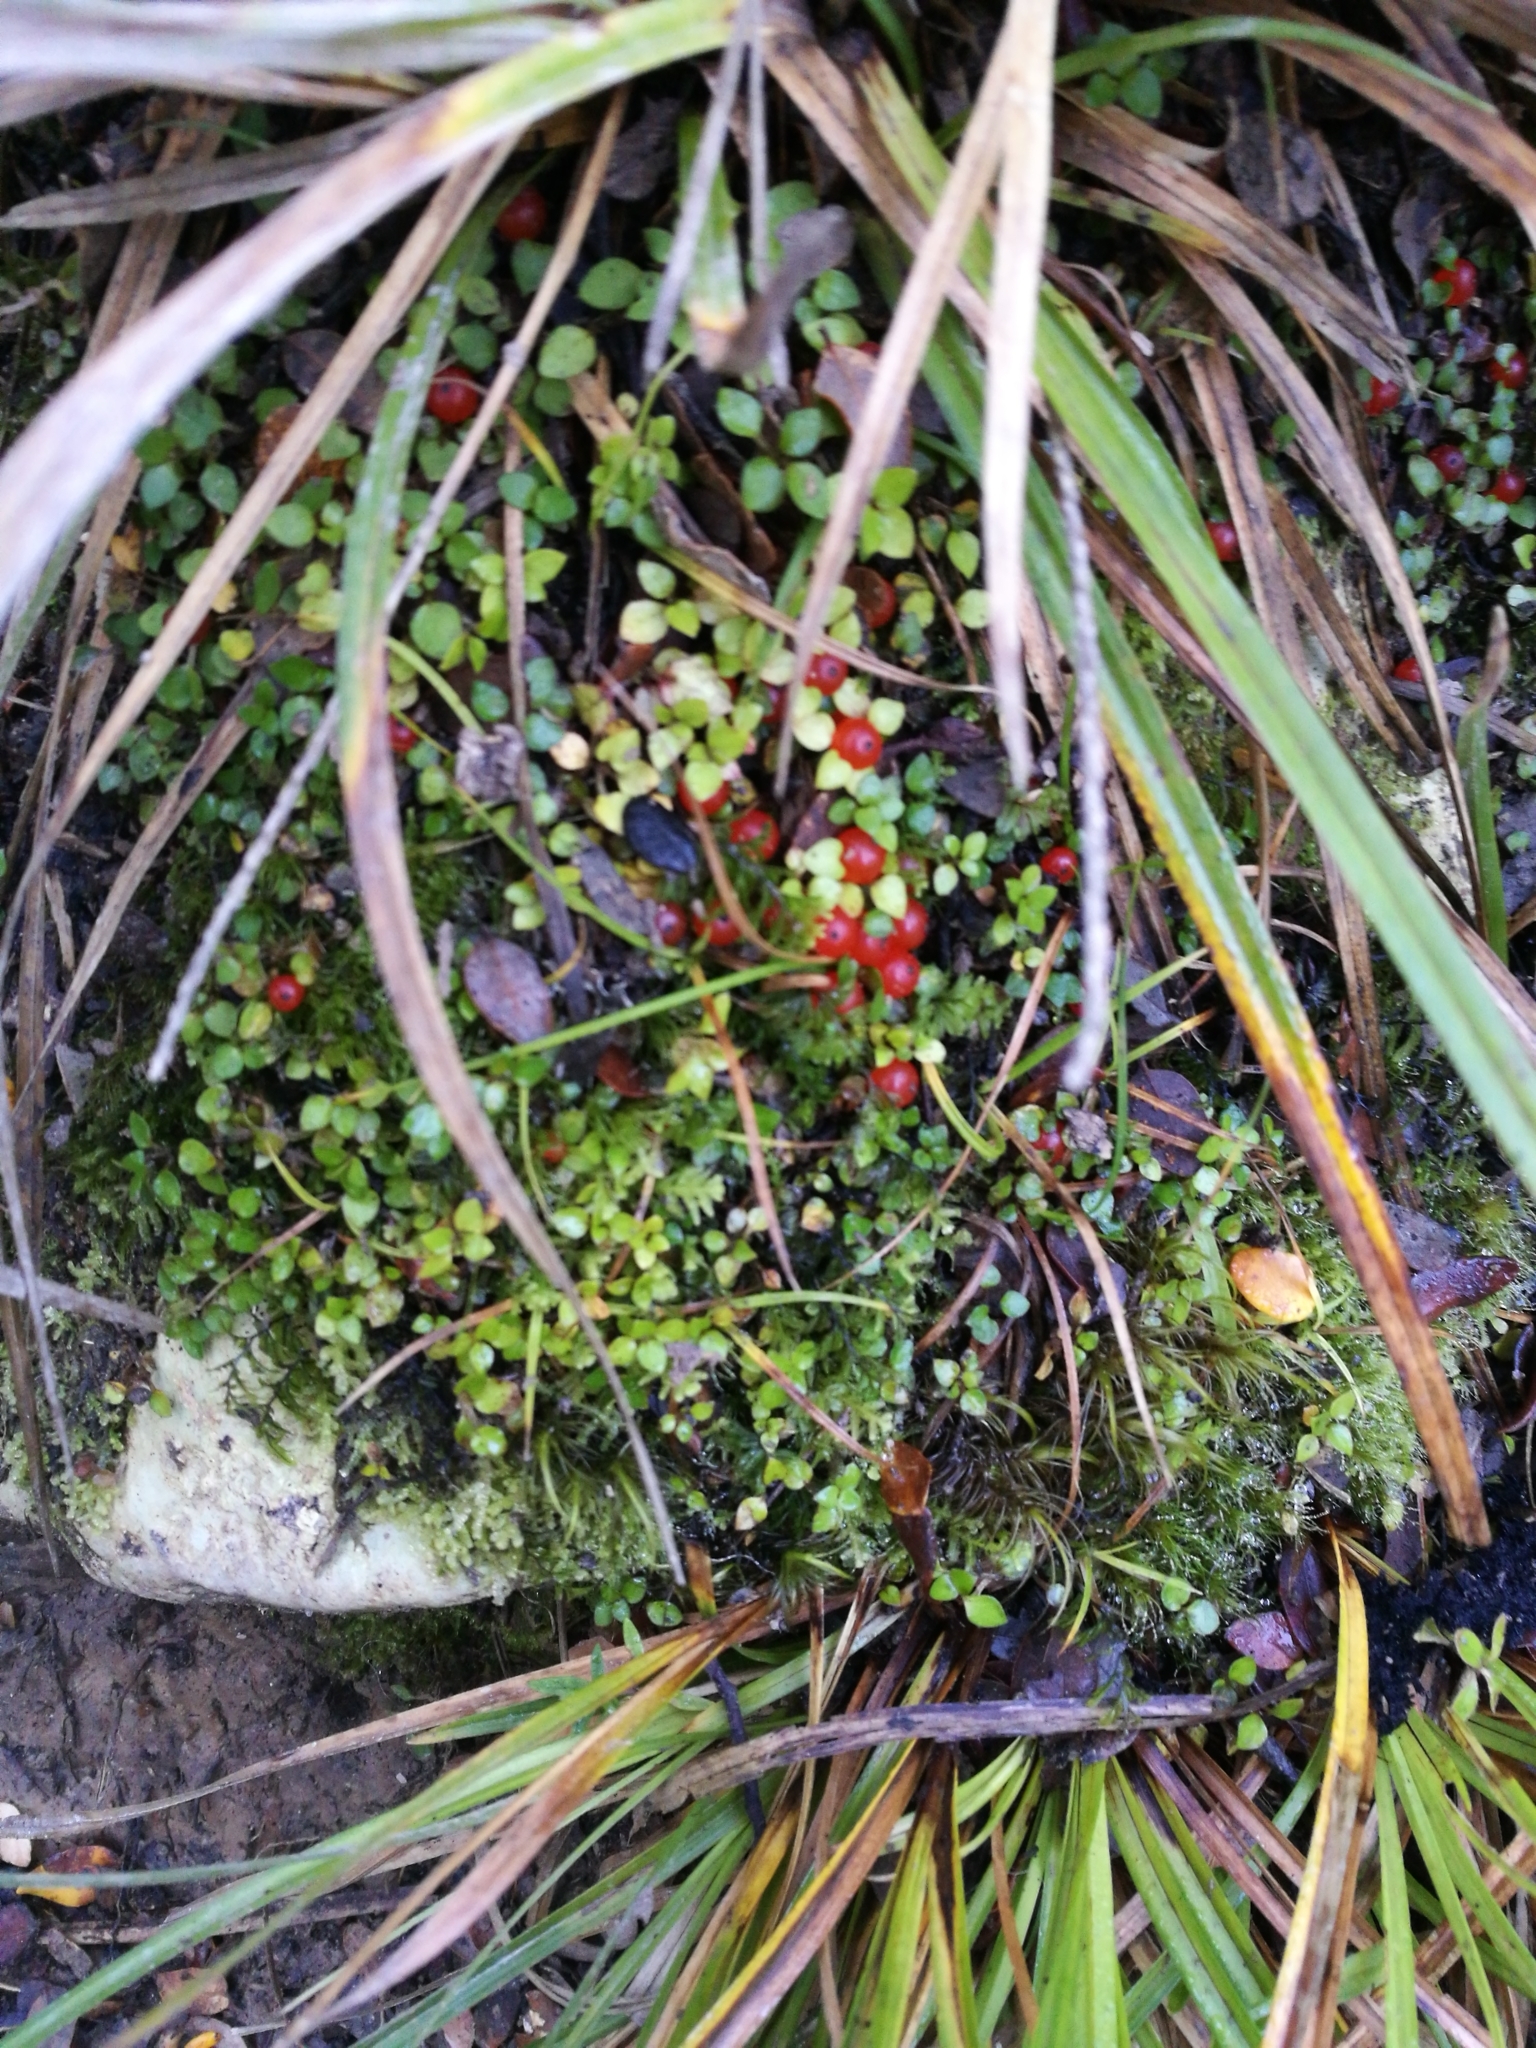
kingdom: Plantae
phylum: Tracheophyta
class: Magnoliopsida
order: Gentianales
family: Rubiaceae
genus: Nertera
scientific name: Nertera granadensis
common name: Beadplant
